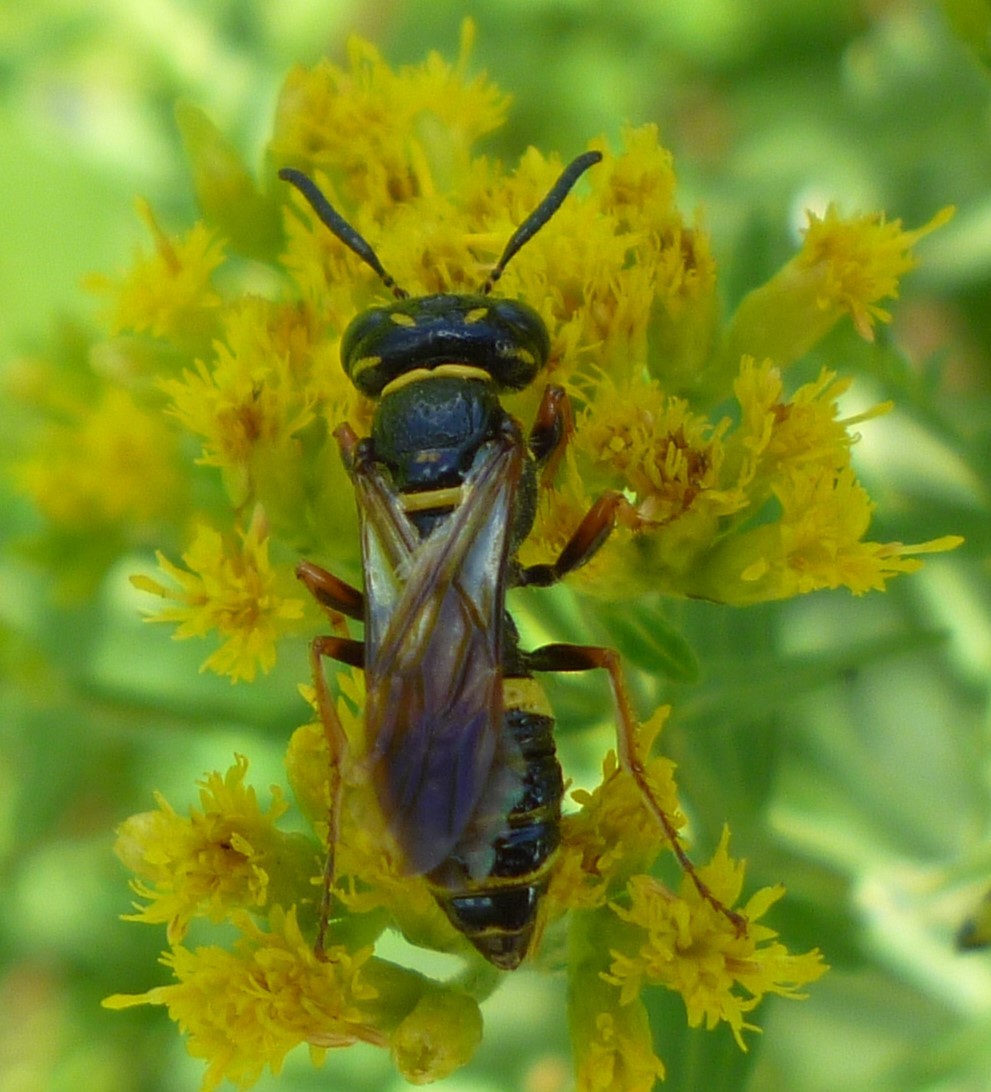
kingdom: Animalia
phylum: Arthropoda
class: Insecta
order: Hymenoptera
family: Crabronidae
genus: Philanthus
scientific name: Philanthus gibbosus
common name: Humped beewolf
